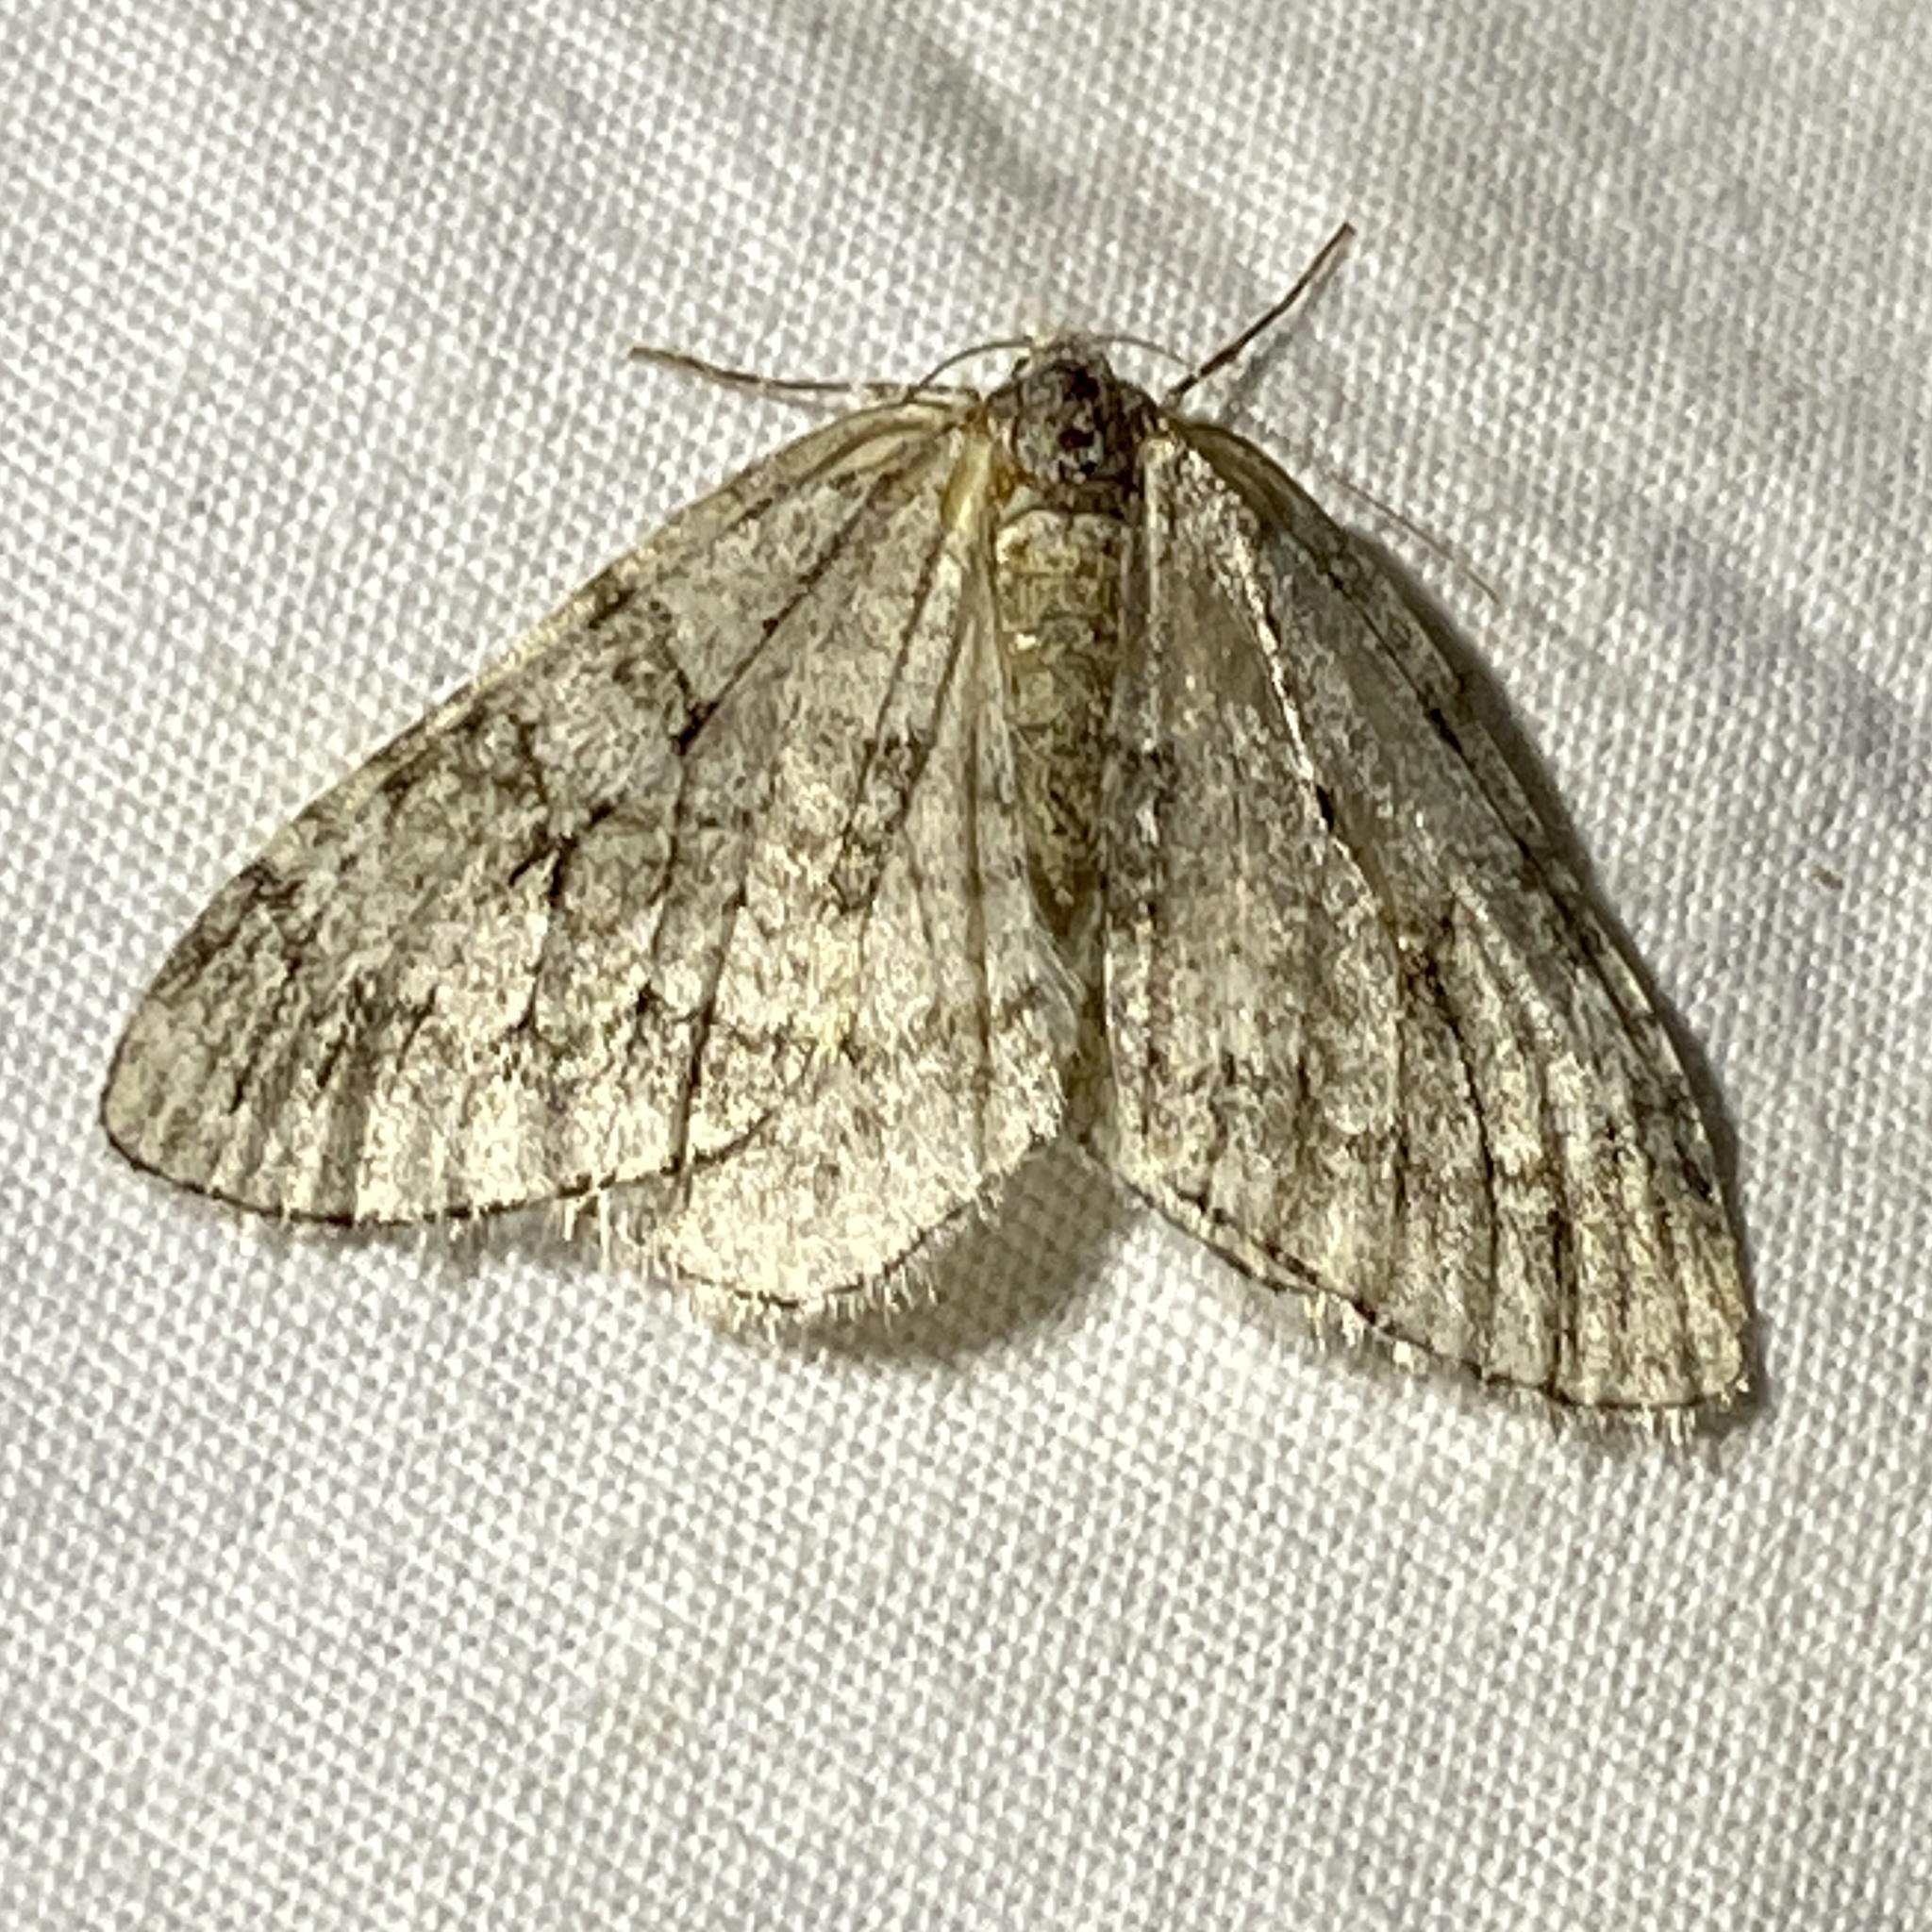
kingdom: Animalia
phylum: Arthropoda
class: Insecta
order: Lepidoptera
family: Geometridae
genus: Epirrita
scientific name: Epirrita autumnata
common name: Autumnal moth
